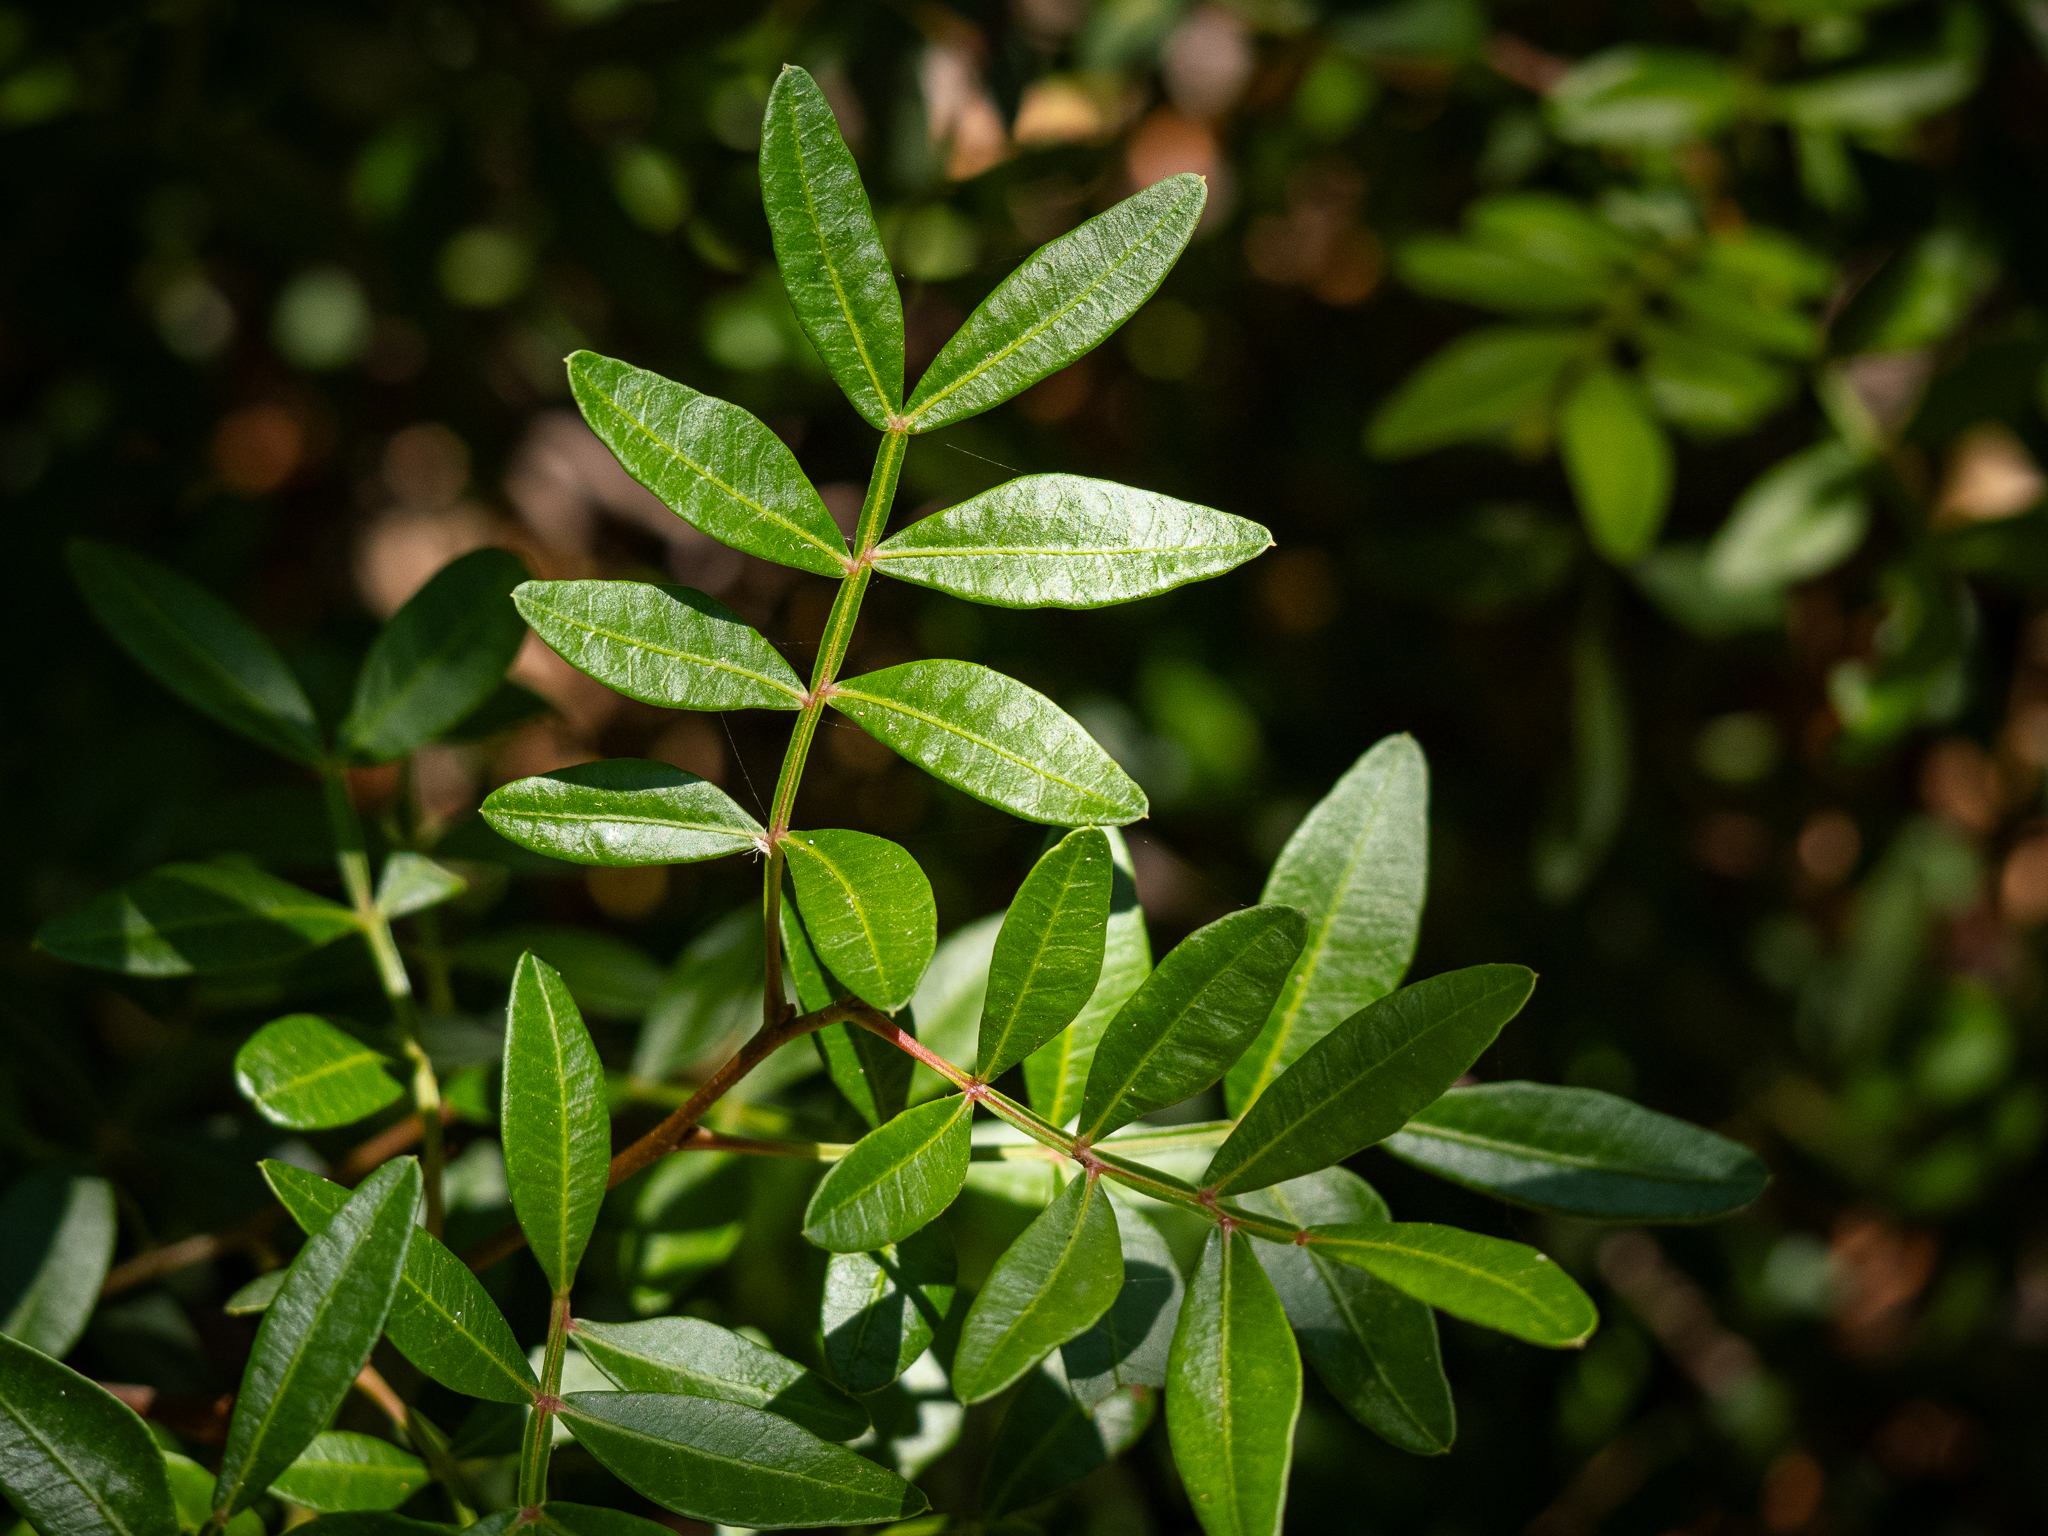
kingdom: Plantae
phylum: Tracheophyta
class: Magnoliopsida
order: Sapindales
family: Anacardiaceae
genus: Pistacia
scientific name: Pistacia lentiscus
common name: Lentisk
